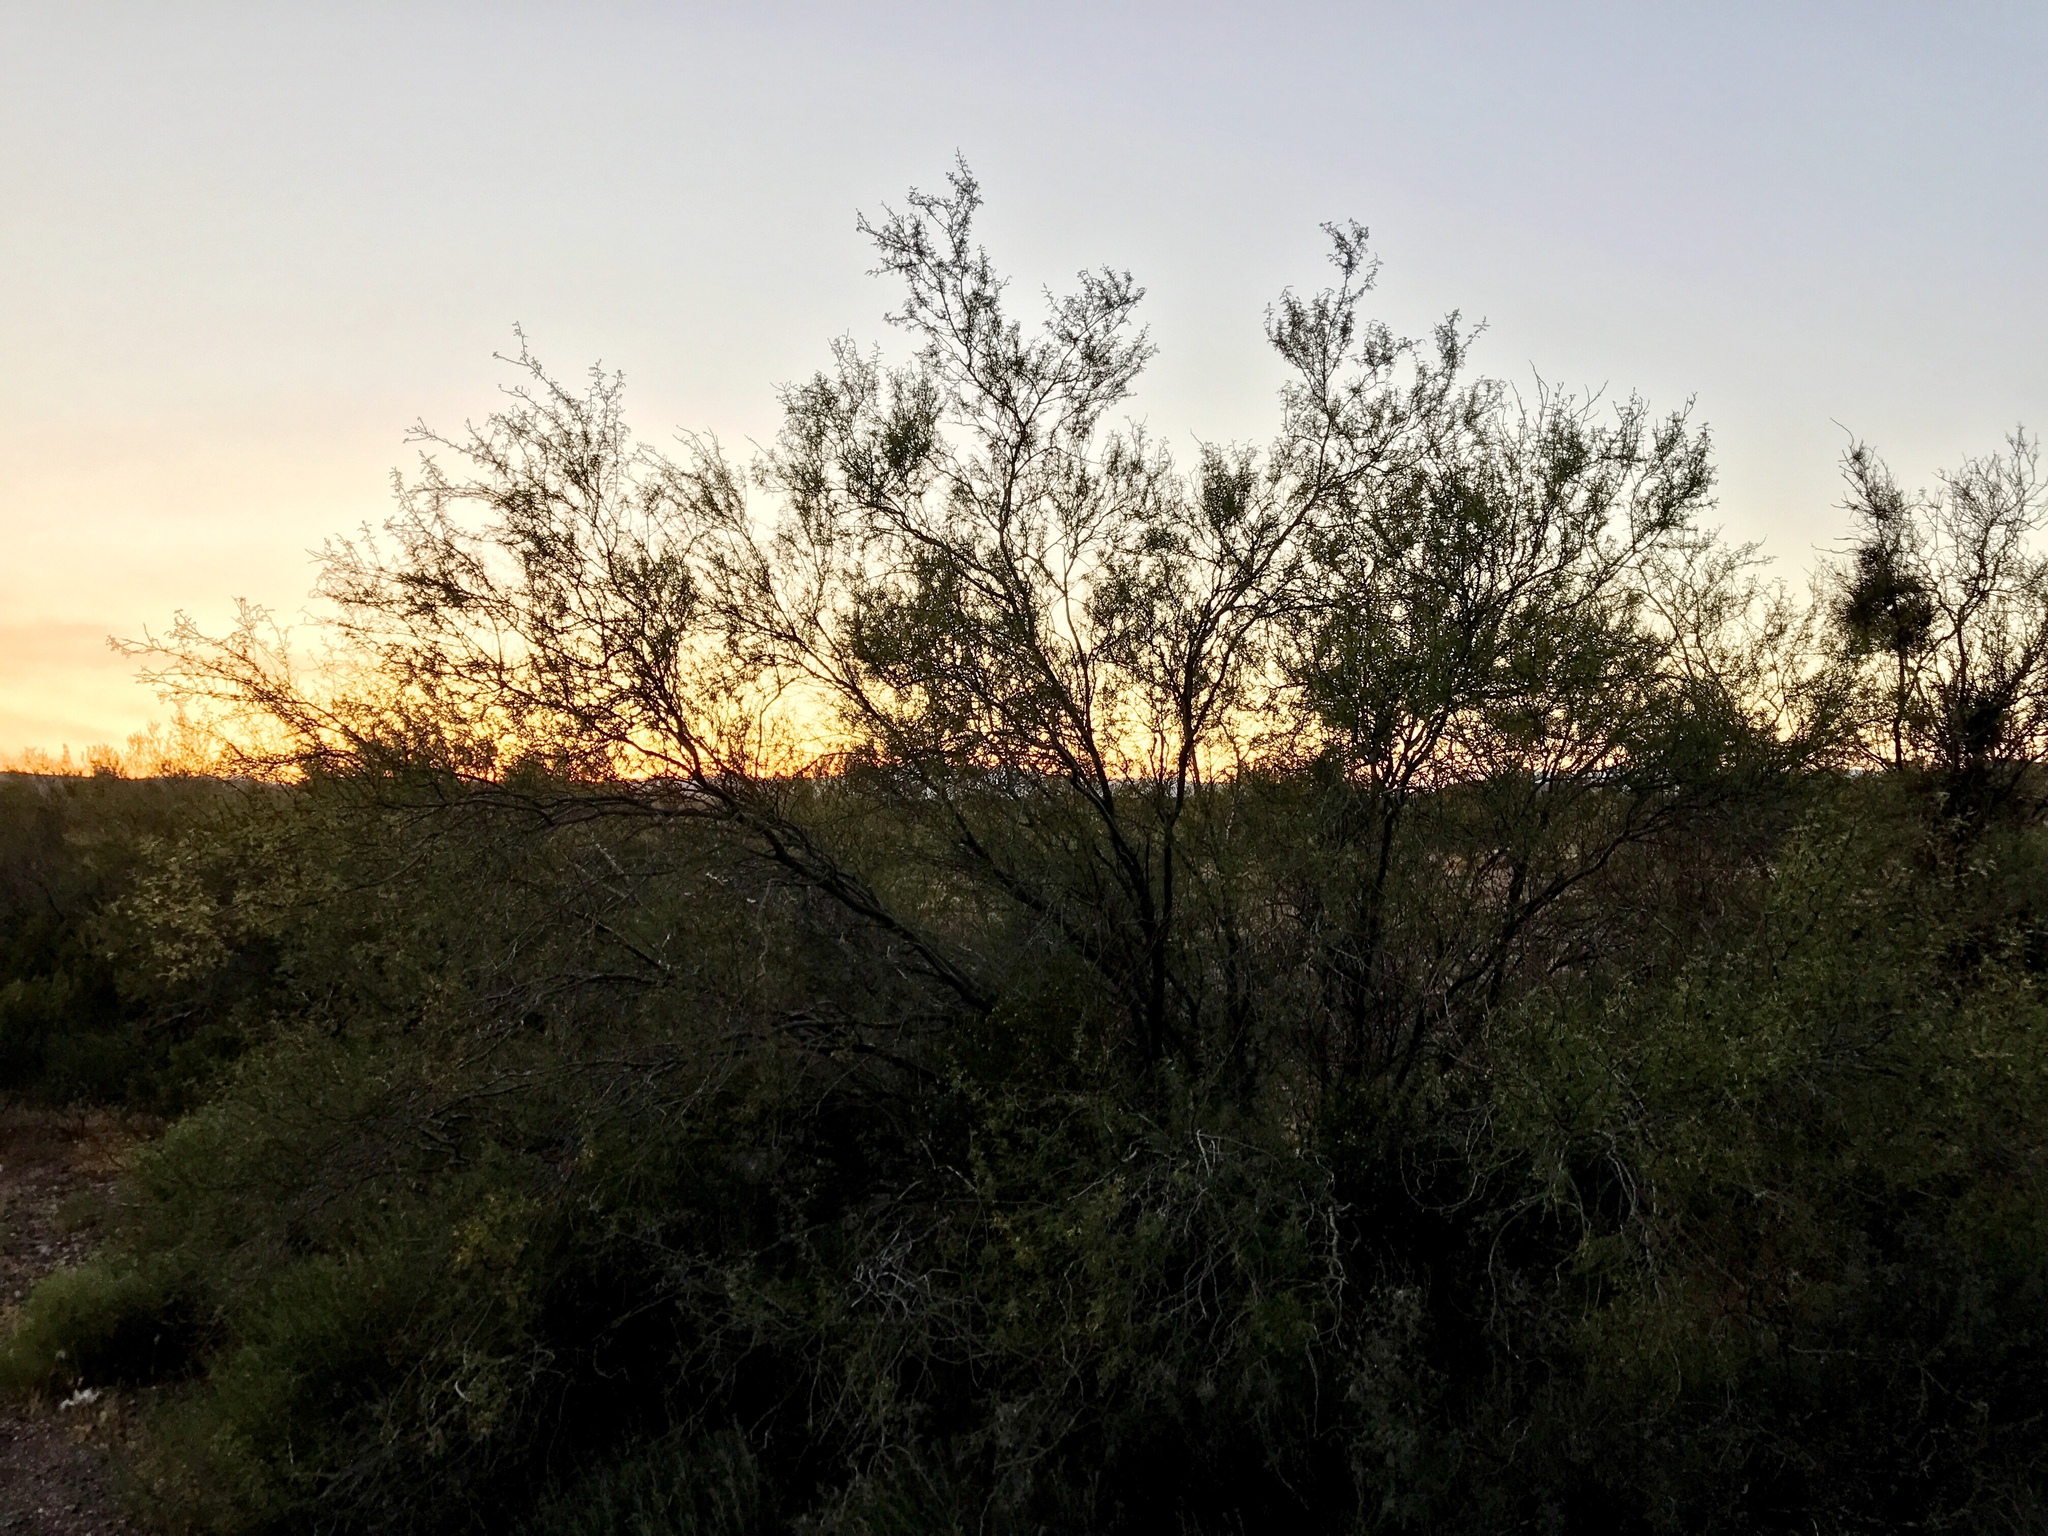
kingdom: Plantae
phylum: Tracheophyta
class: Magnoliopsida
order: Fabales
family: Fabaceae
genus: Senegalia
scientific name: Senegalia greggii
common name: Texas-mimosa
